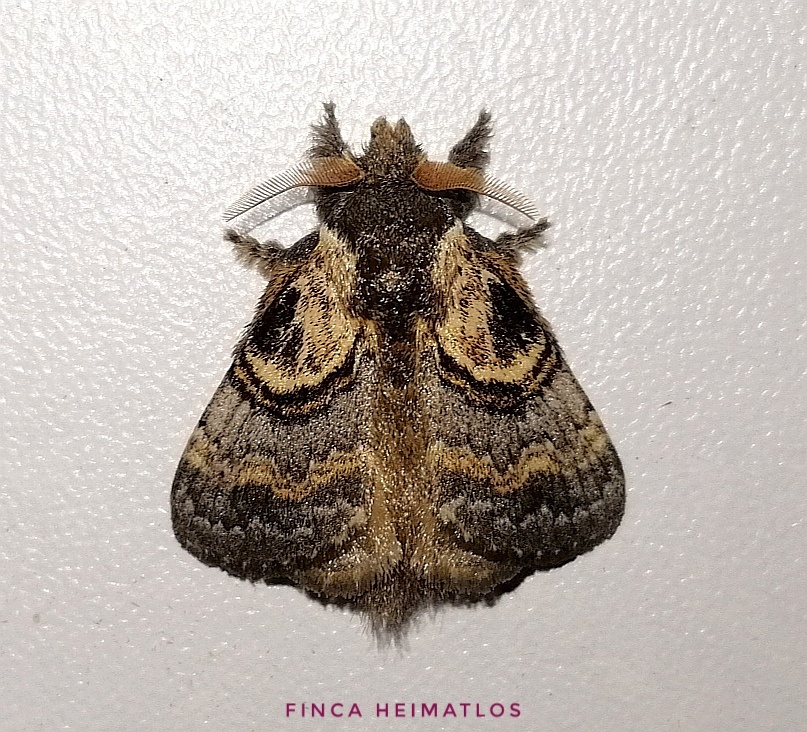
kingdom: Animalia
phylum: Arthropoda
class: Insecta
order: Lepidoptera
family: Lasiocampidae
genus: Euglyphis
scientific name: Euglyphis egra
